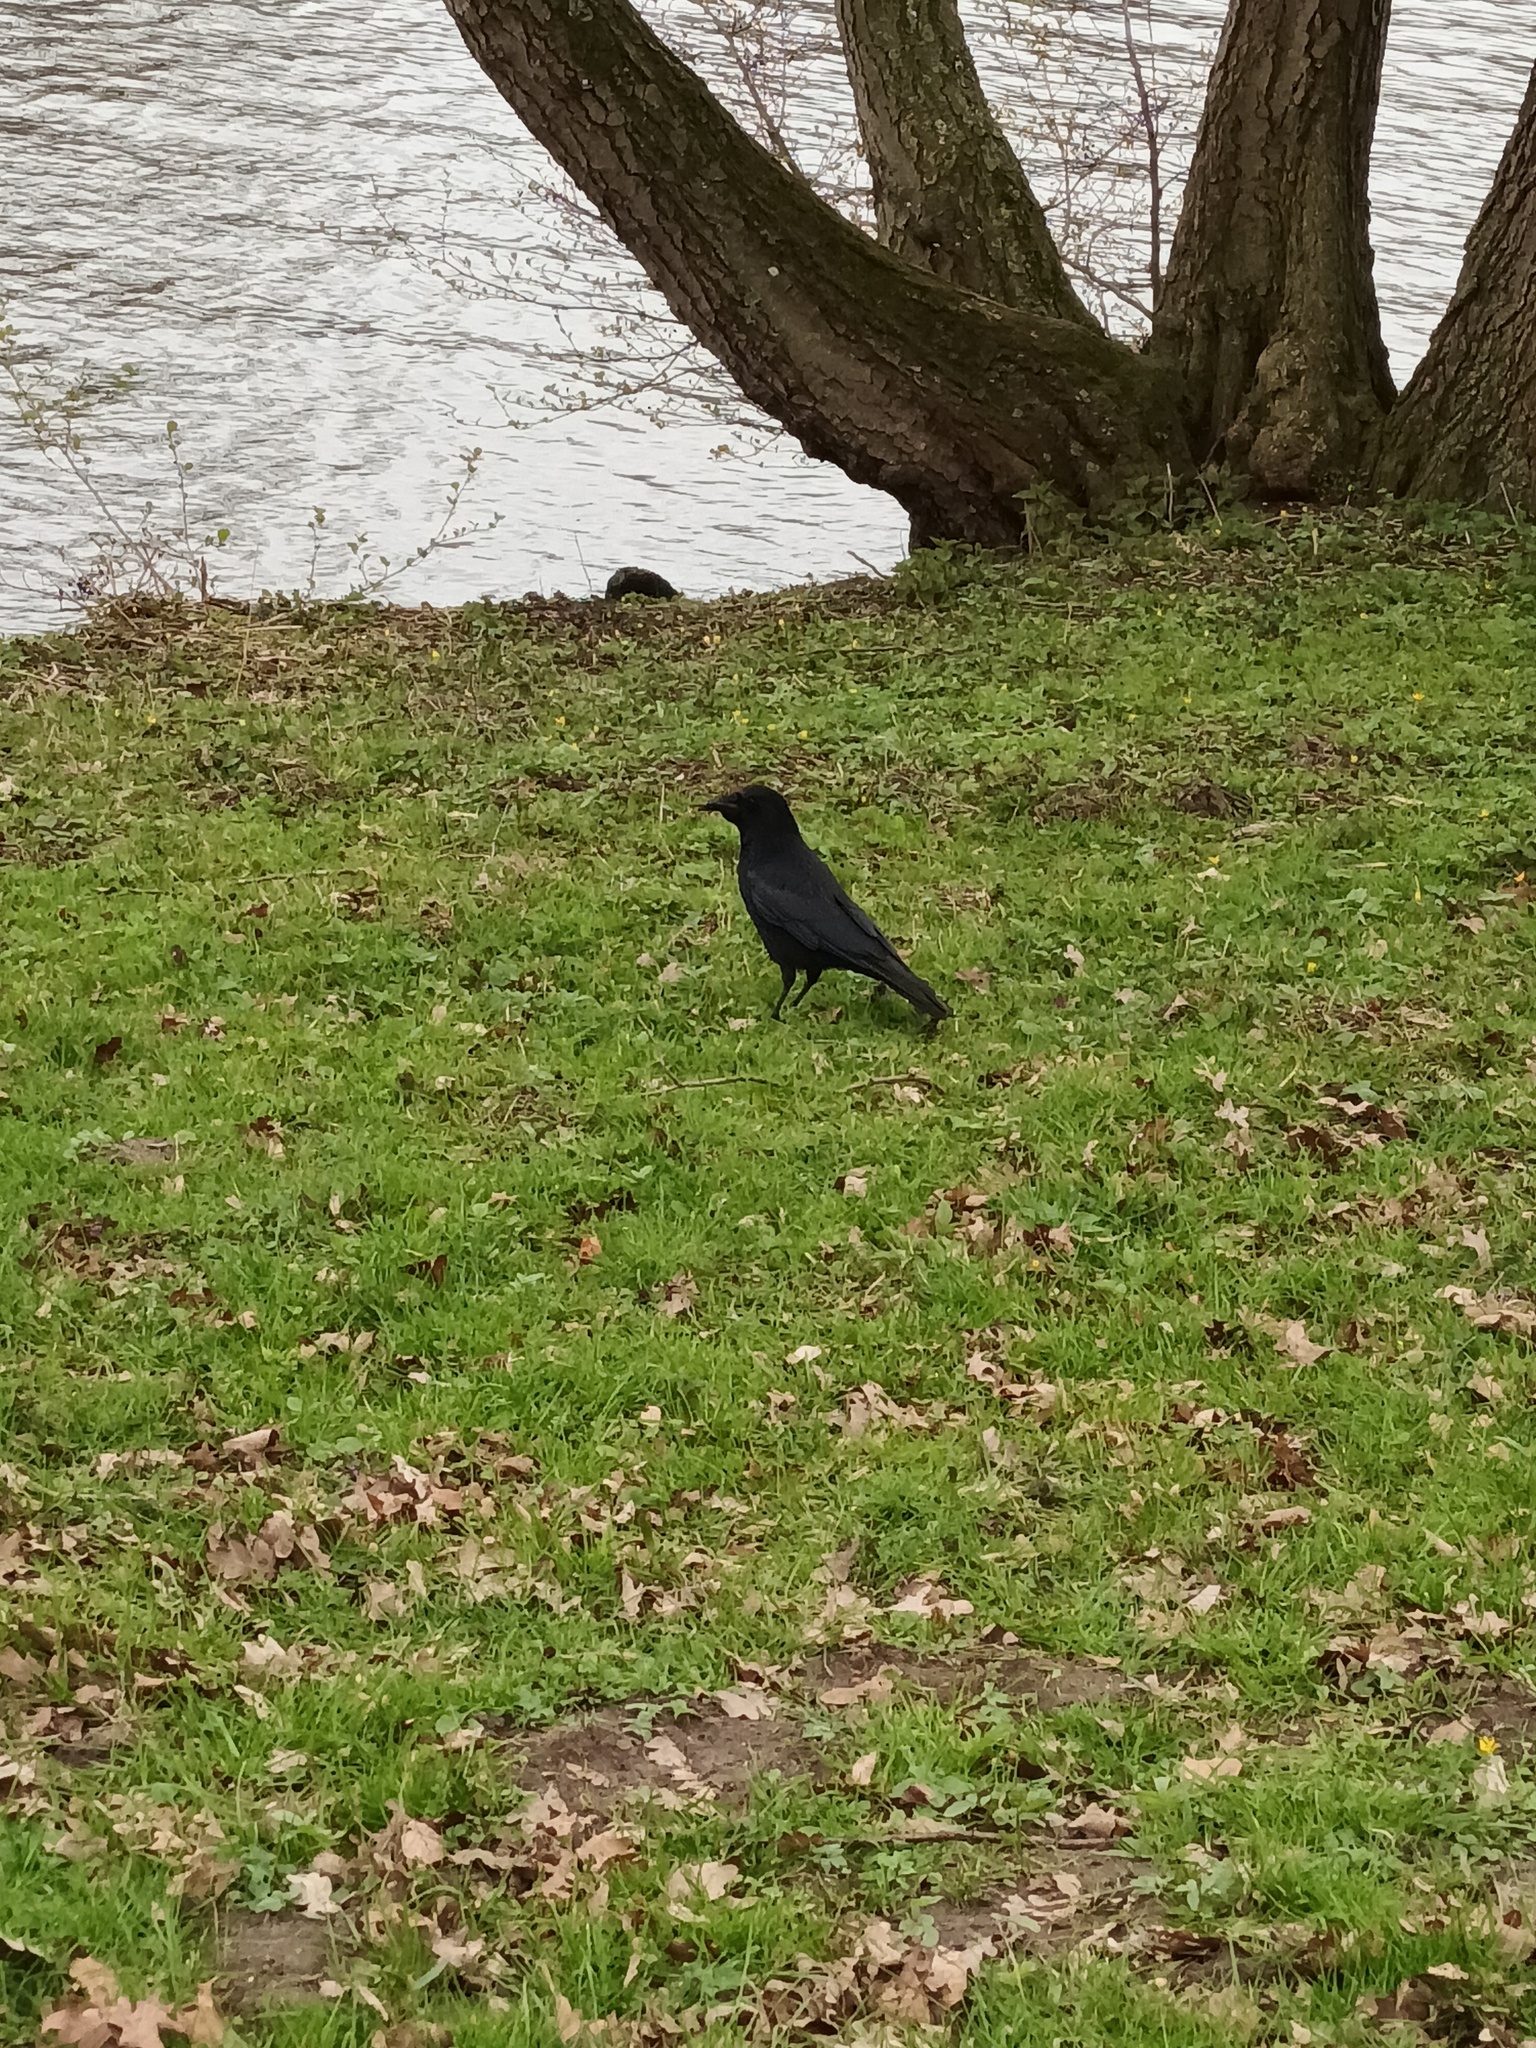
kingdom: Animalia
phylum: Chordata
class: Aves
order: Passeriformes
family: Corvidae
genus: Corvus
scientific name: Corvus corone
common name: Carrion crow
